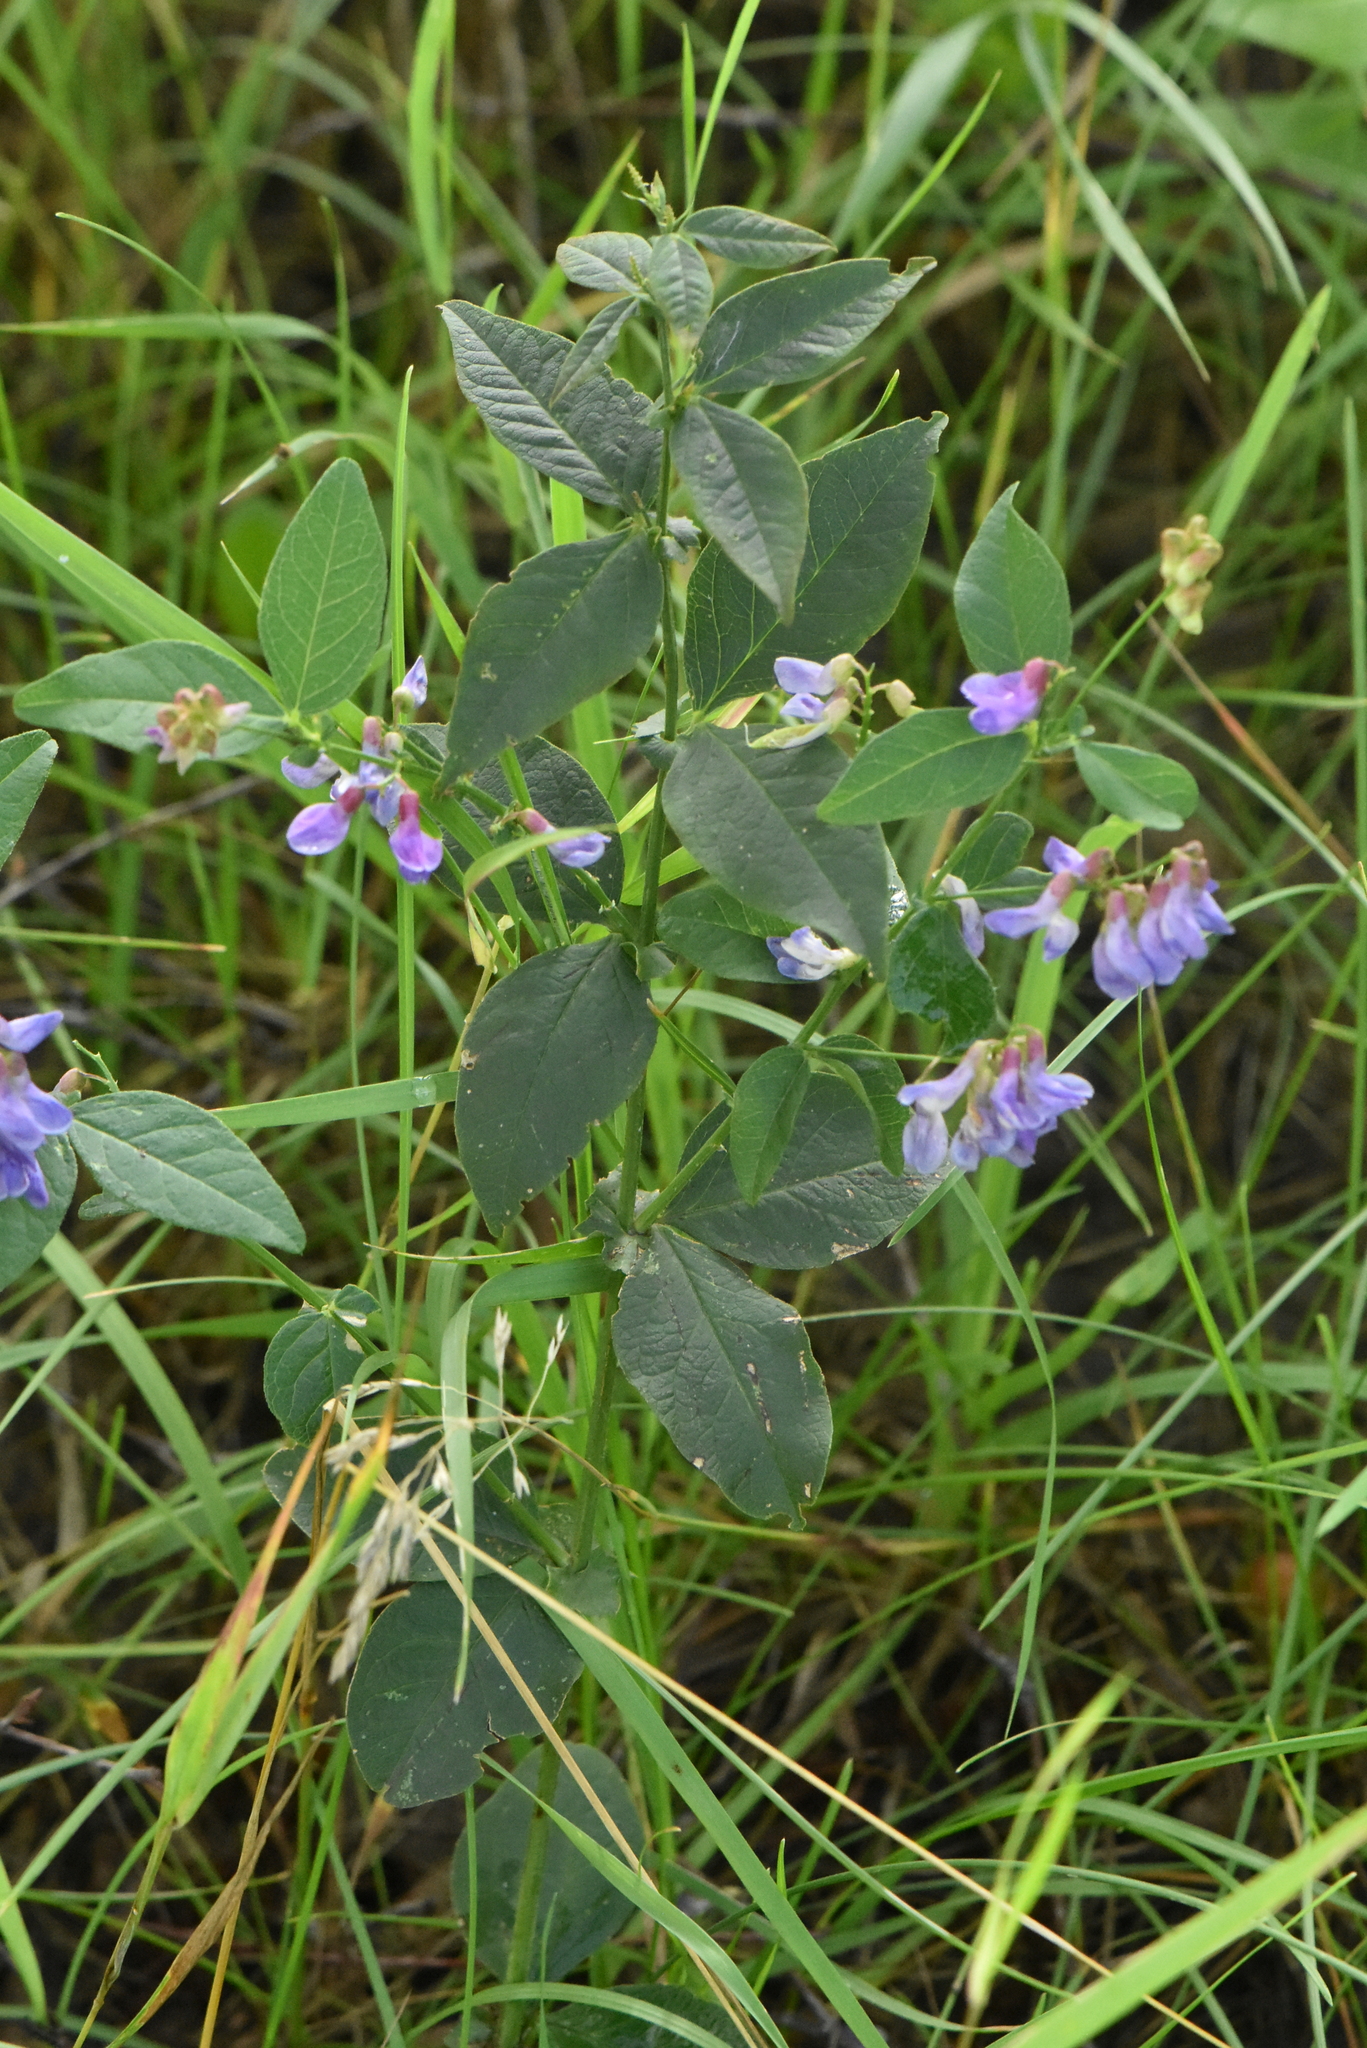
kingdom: Plantae
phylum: Tracheophyta
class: Magnoliopsida
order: Fabales
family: Fabaceae
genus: Vicia
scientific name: Vicia unijuga
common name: Two-leaf vetch
